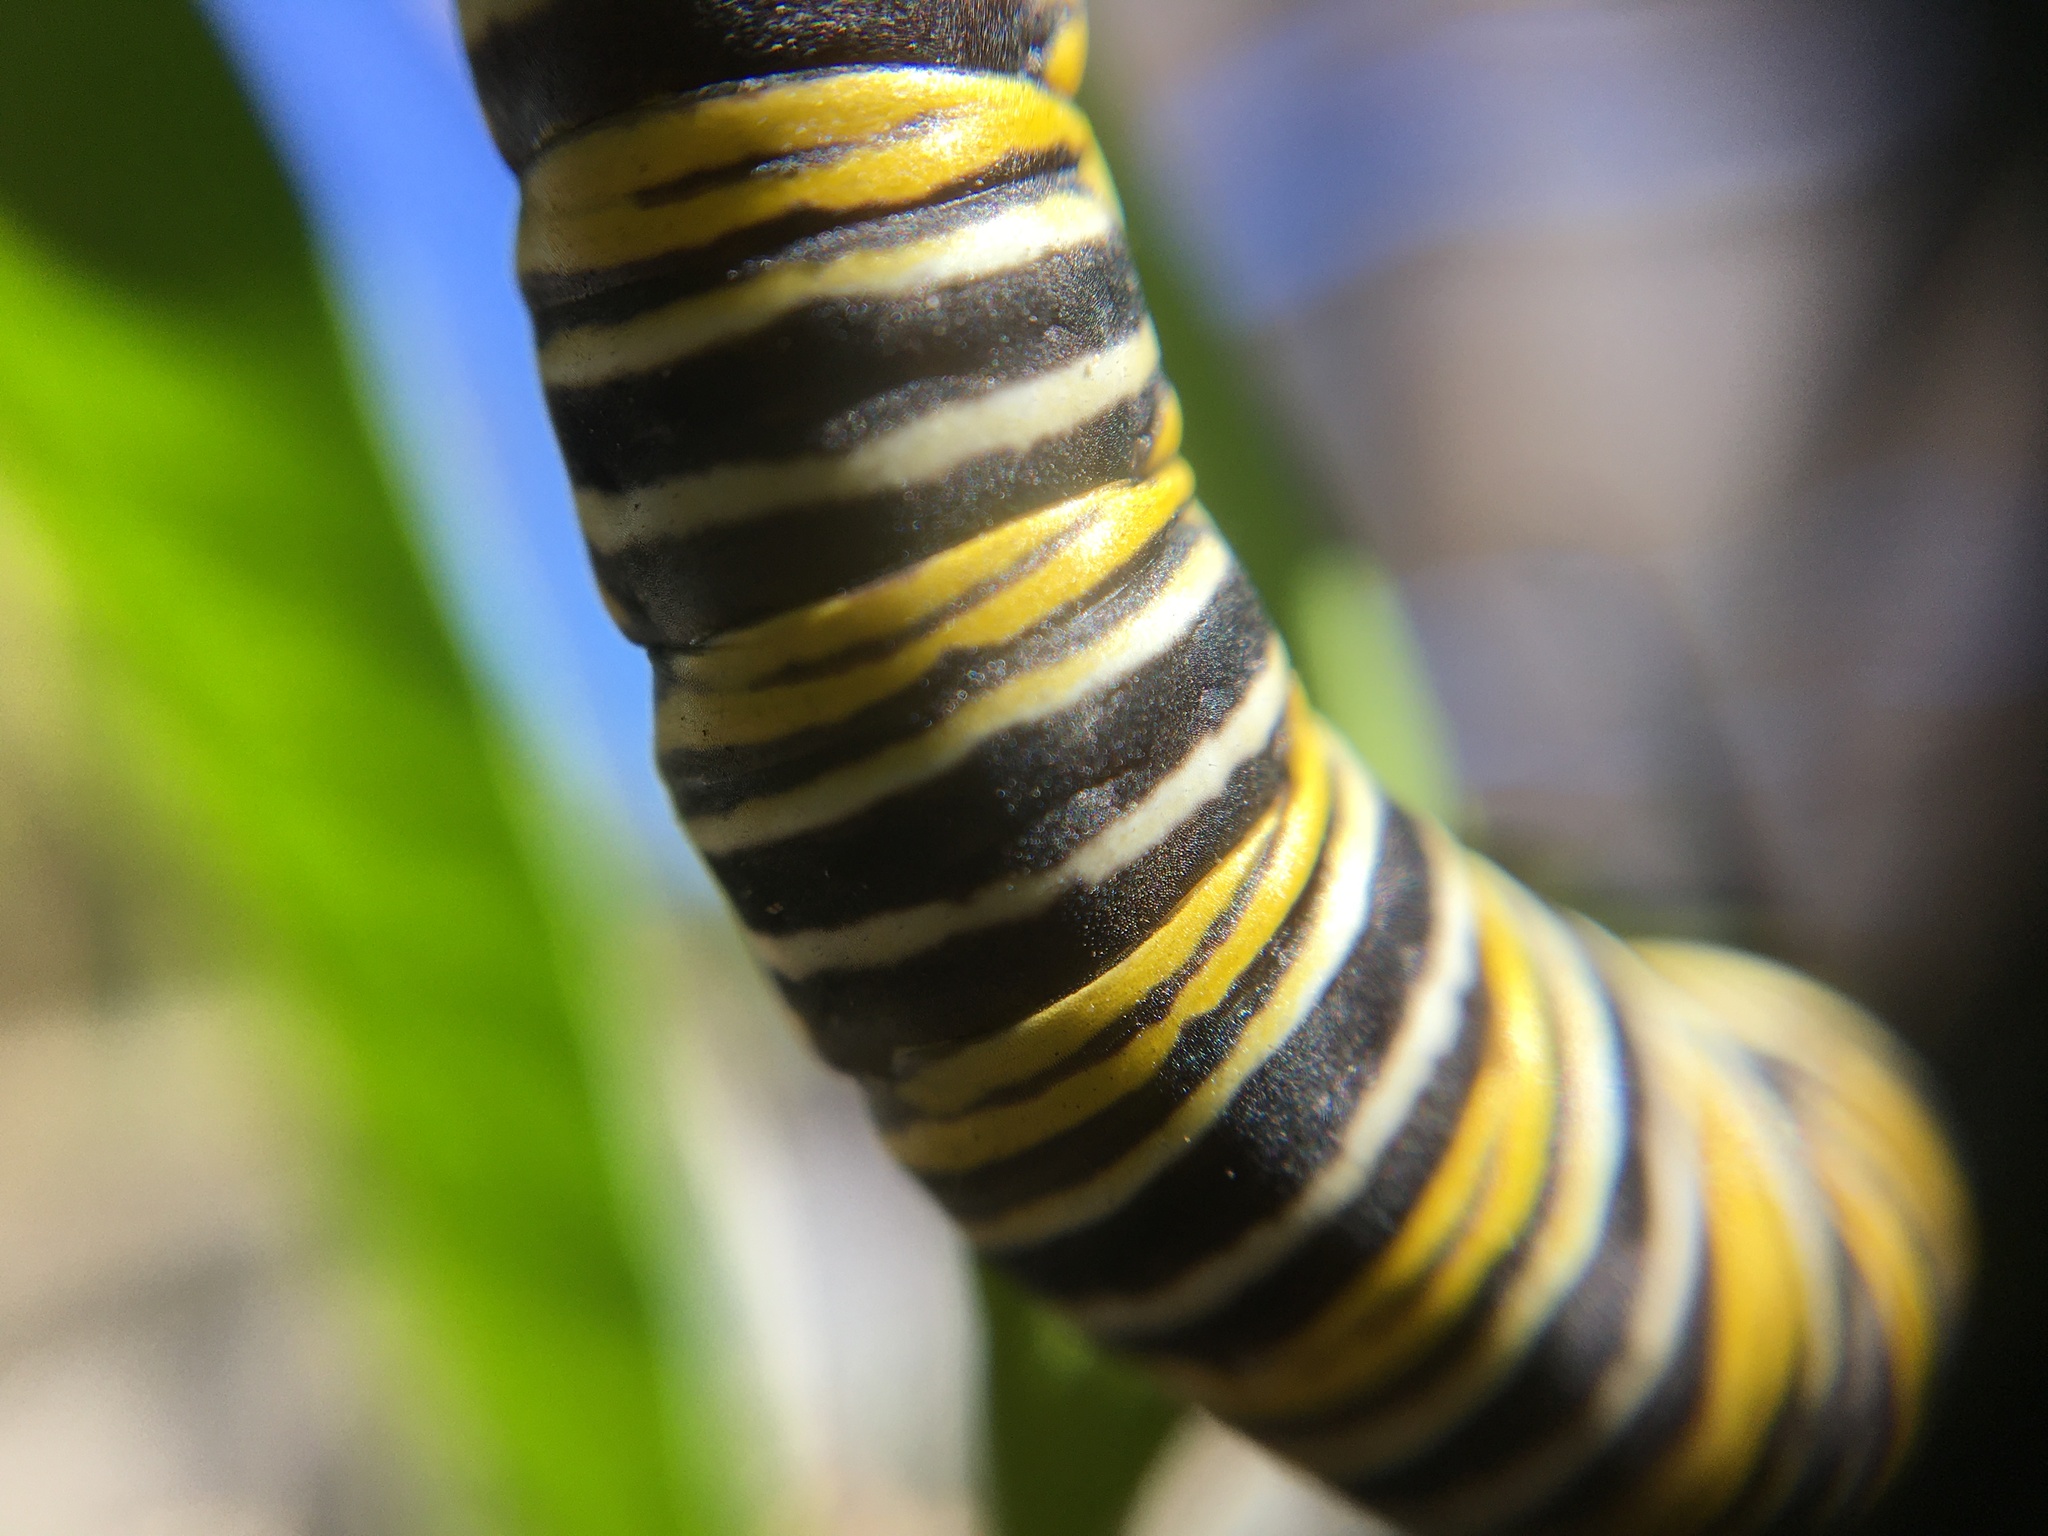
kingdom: Animalia
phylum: Arthropoda
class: Insecta
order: Lepidoptera
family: Nymphalidae
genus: Danaus
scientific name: Danaus plexippus
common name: Monarch
